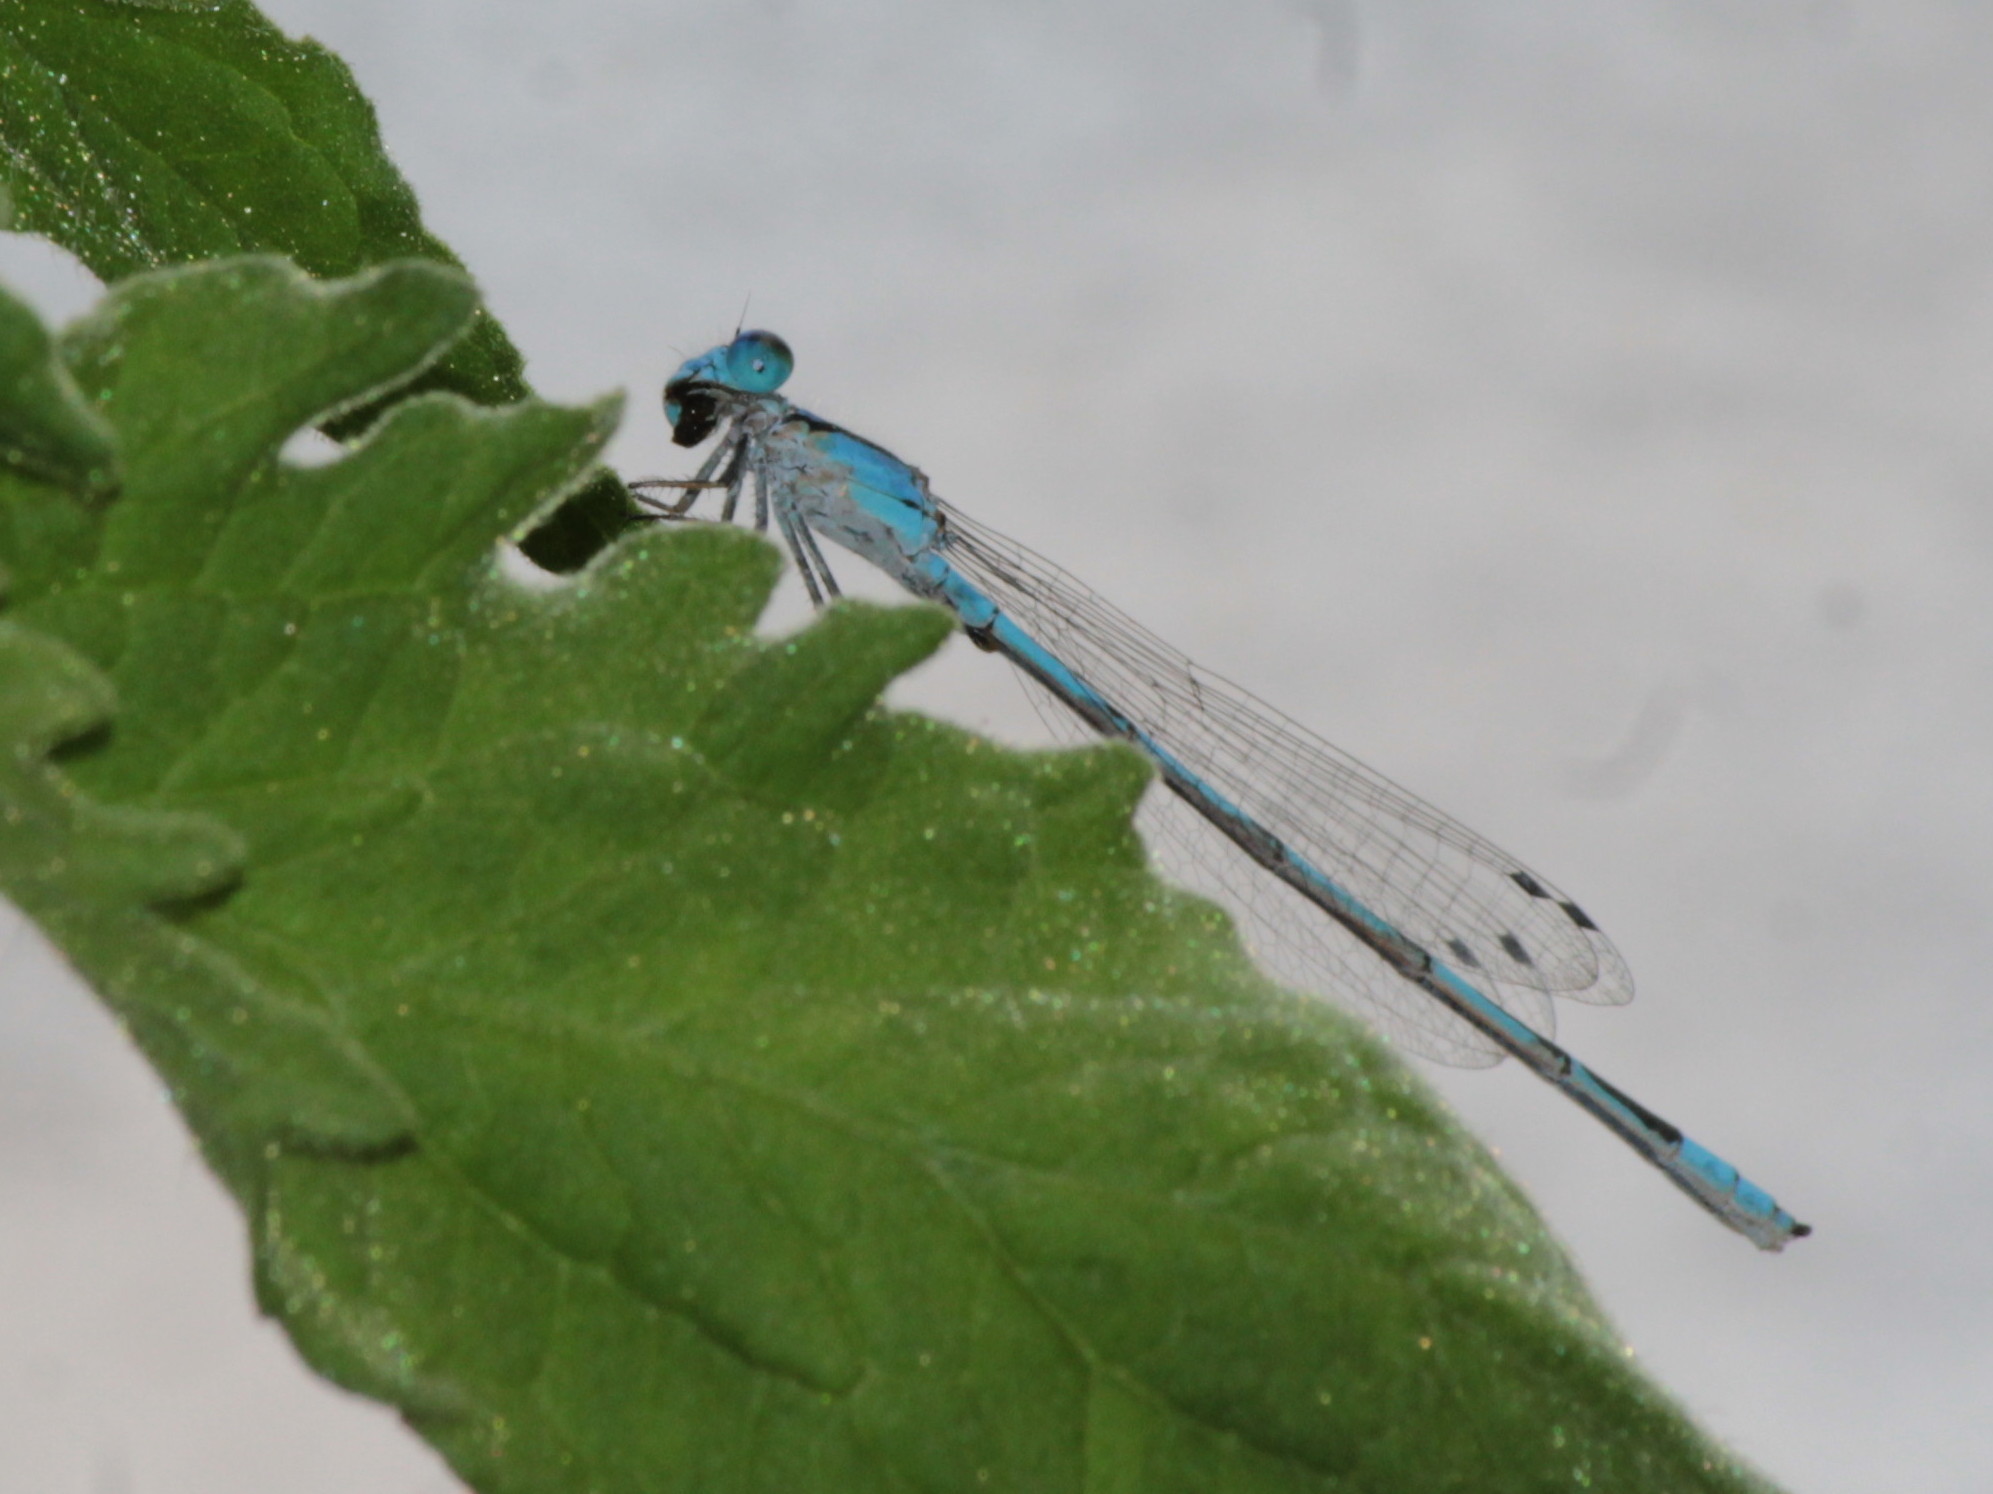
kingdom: Animalia
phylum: Arthropoda
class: Insecta
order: Odonata
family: Coenagrionidae
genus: Enallagma
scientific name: Enallagma civile
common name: Damselfly
